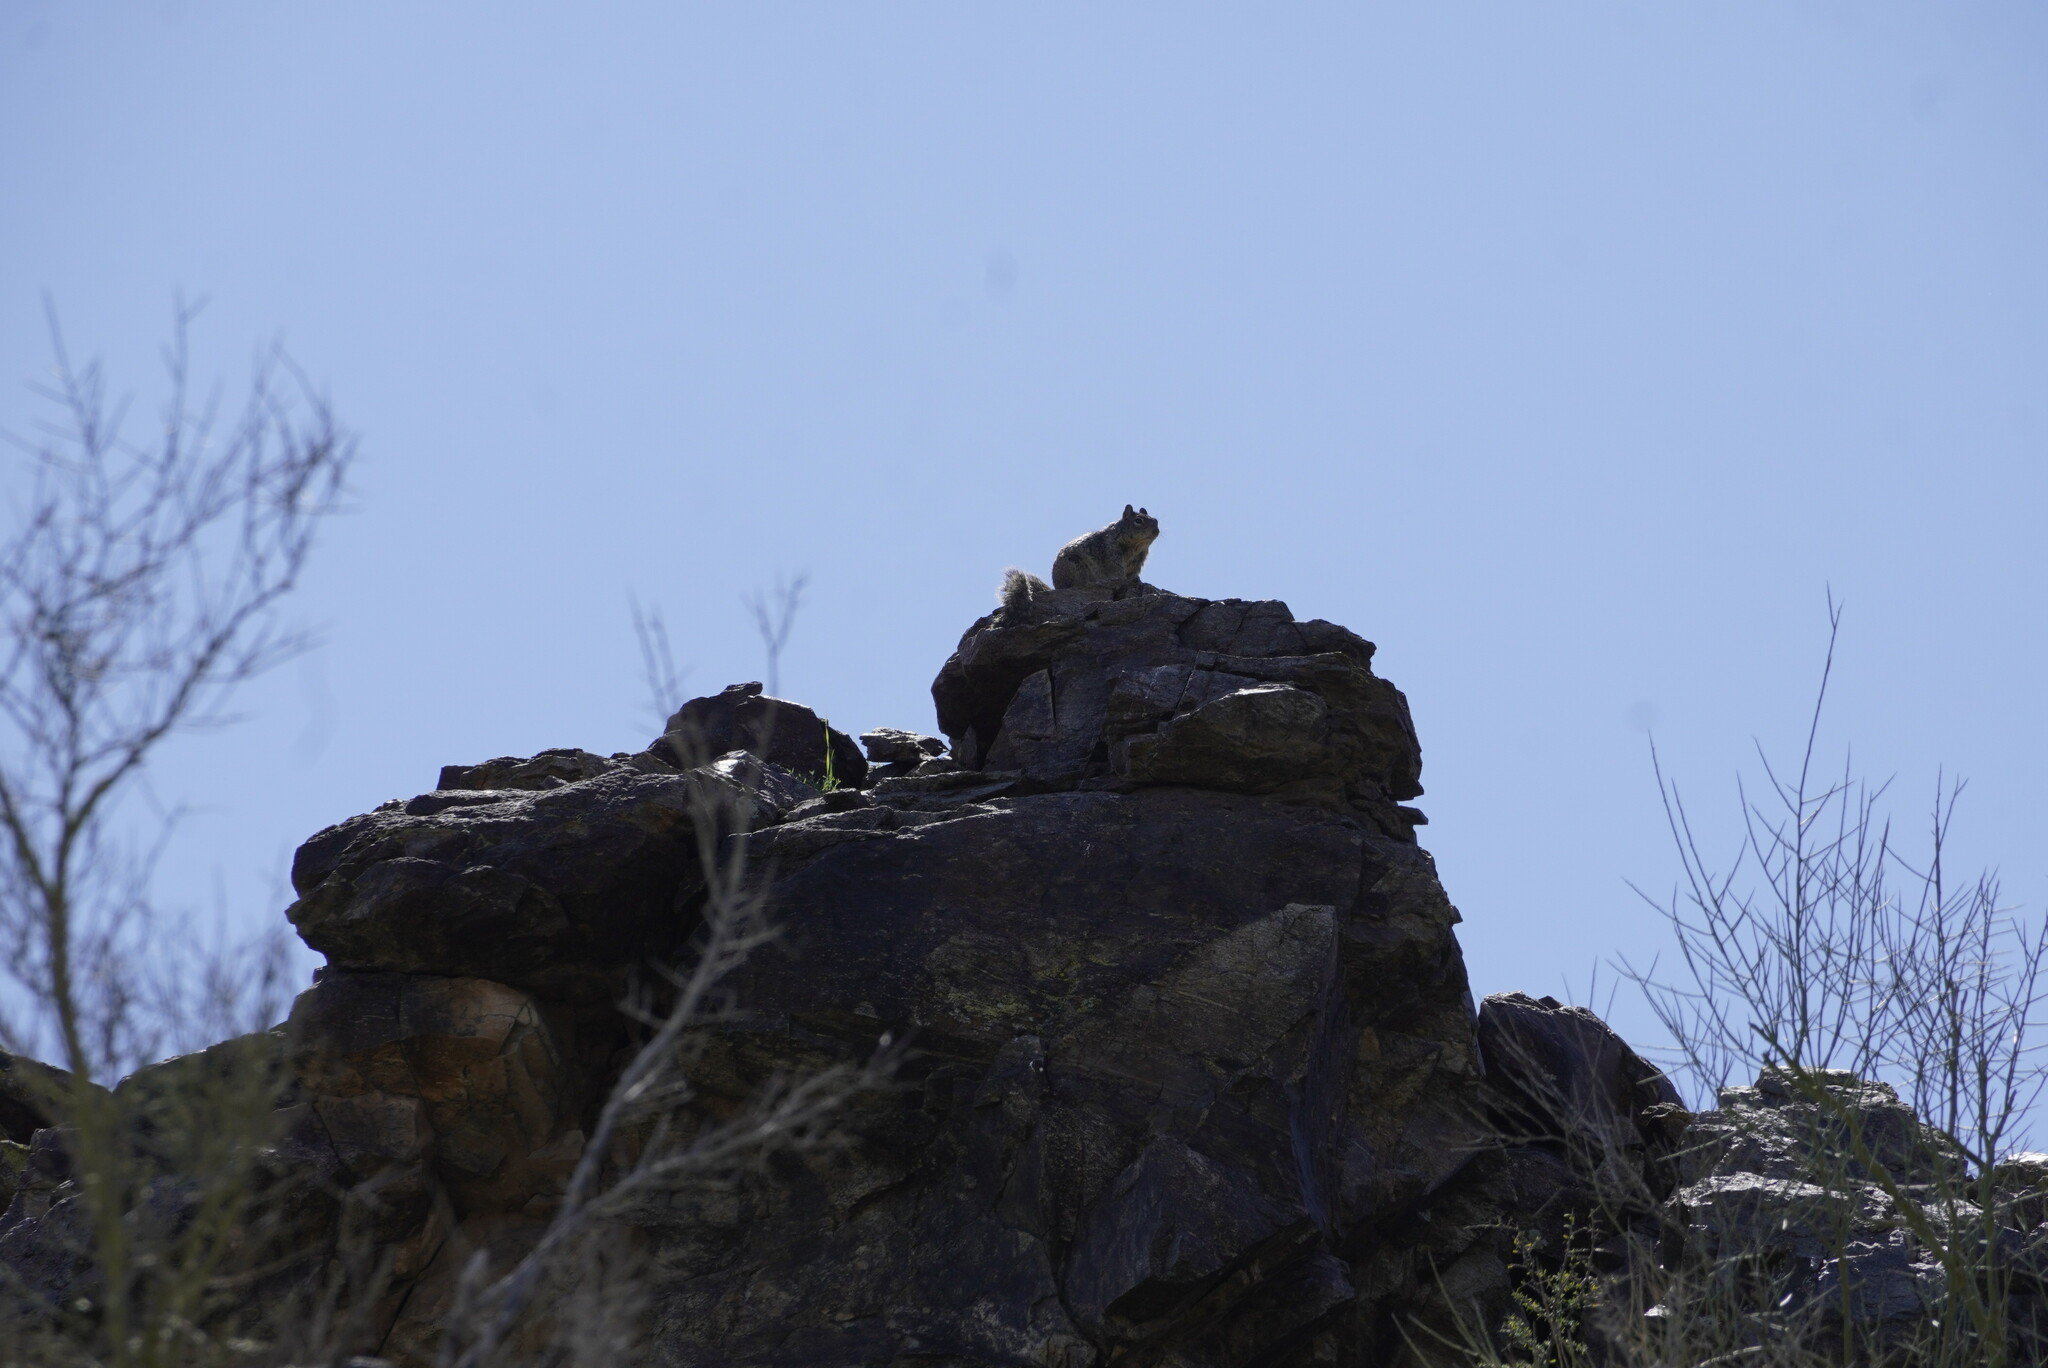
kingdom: Animalia
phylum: Chordata
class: Mammalia
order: Rodentia
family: Sciuridae
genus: Otospermophilus
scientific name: Otospermophilus variegatus
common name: Rock squirrel
